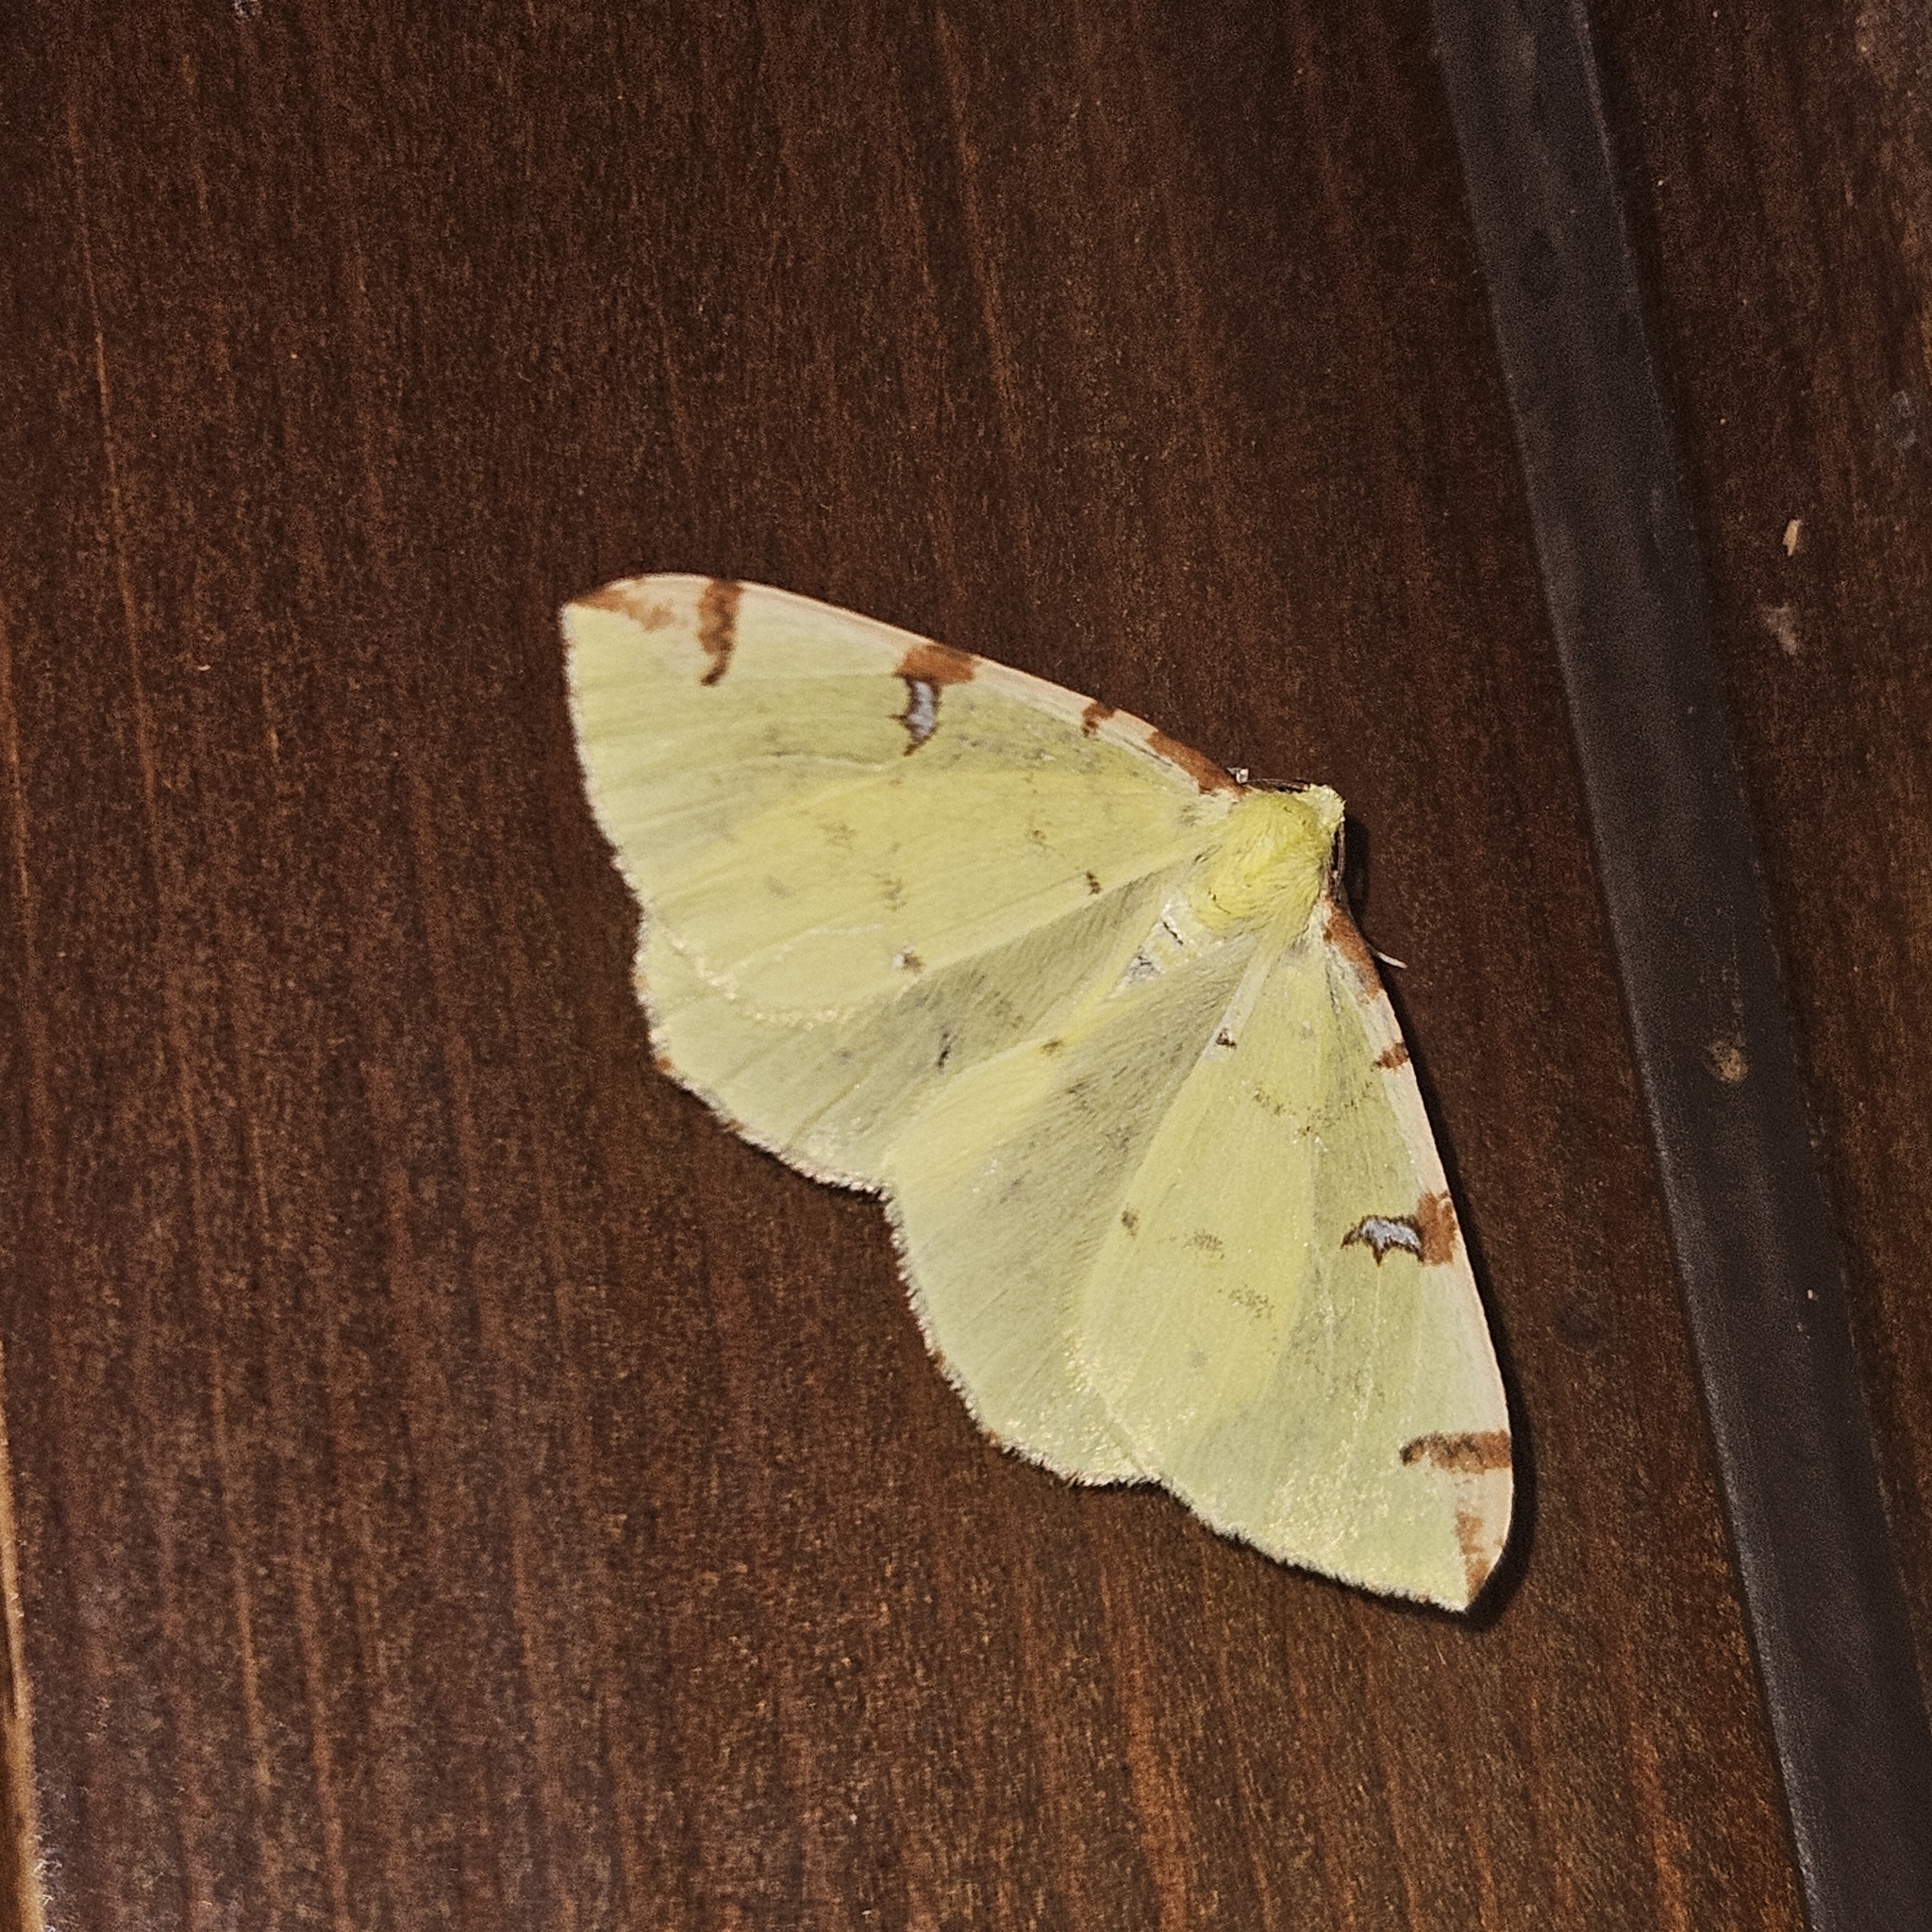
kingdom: Animalia
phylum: Arthropoda
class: Insecta
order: Lepidoptera
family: Geometridae
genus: Opisthograptis
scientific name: Opisthograptis luteolata
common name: Brimstone moth
